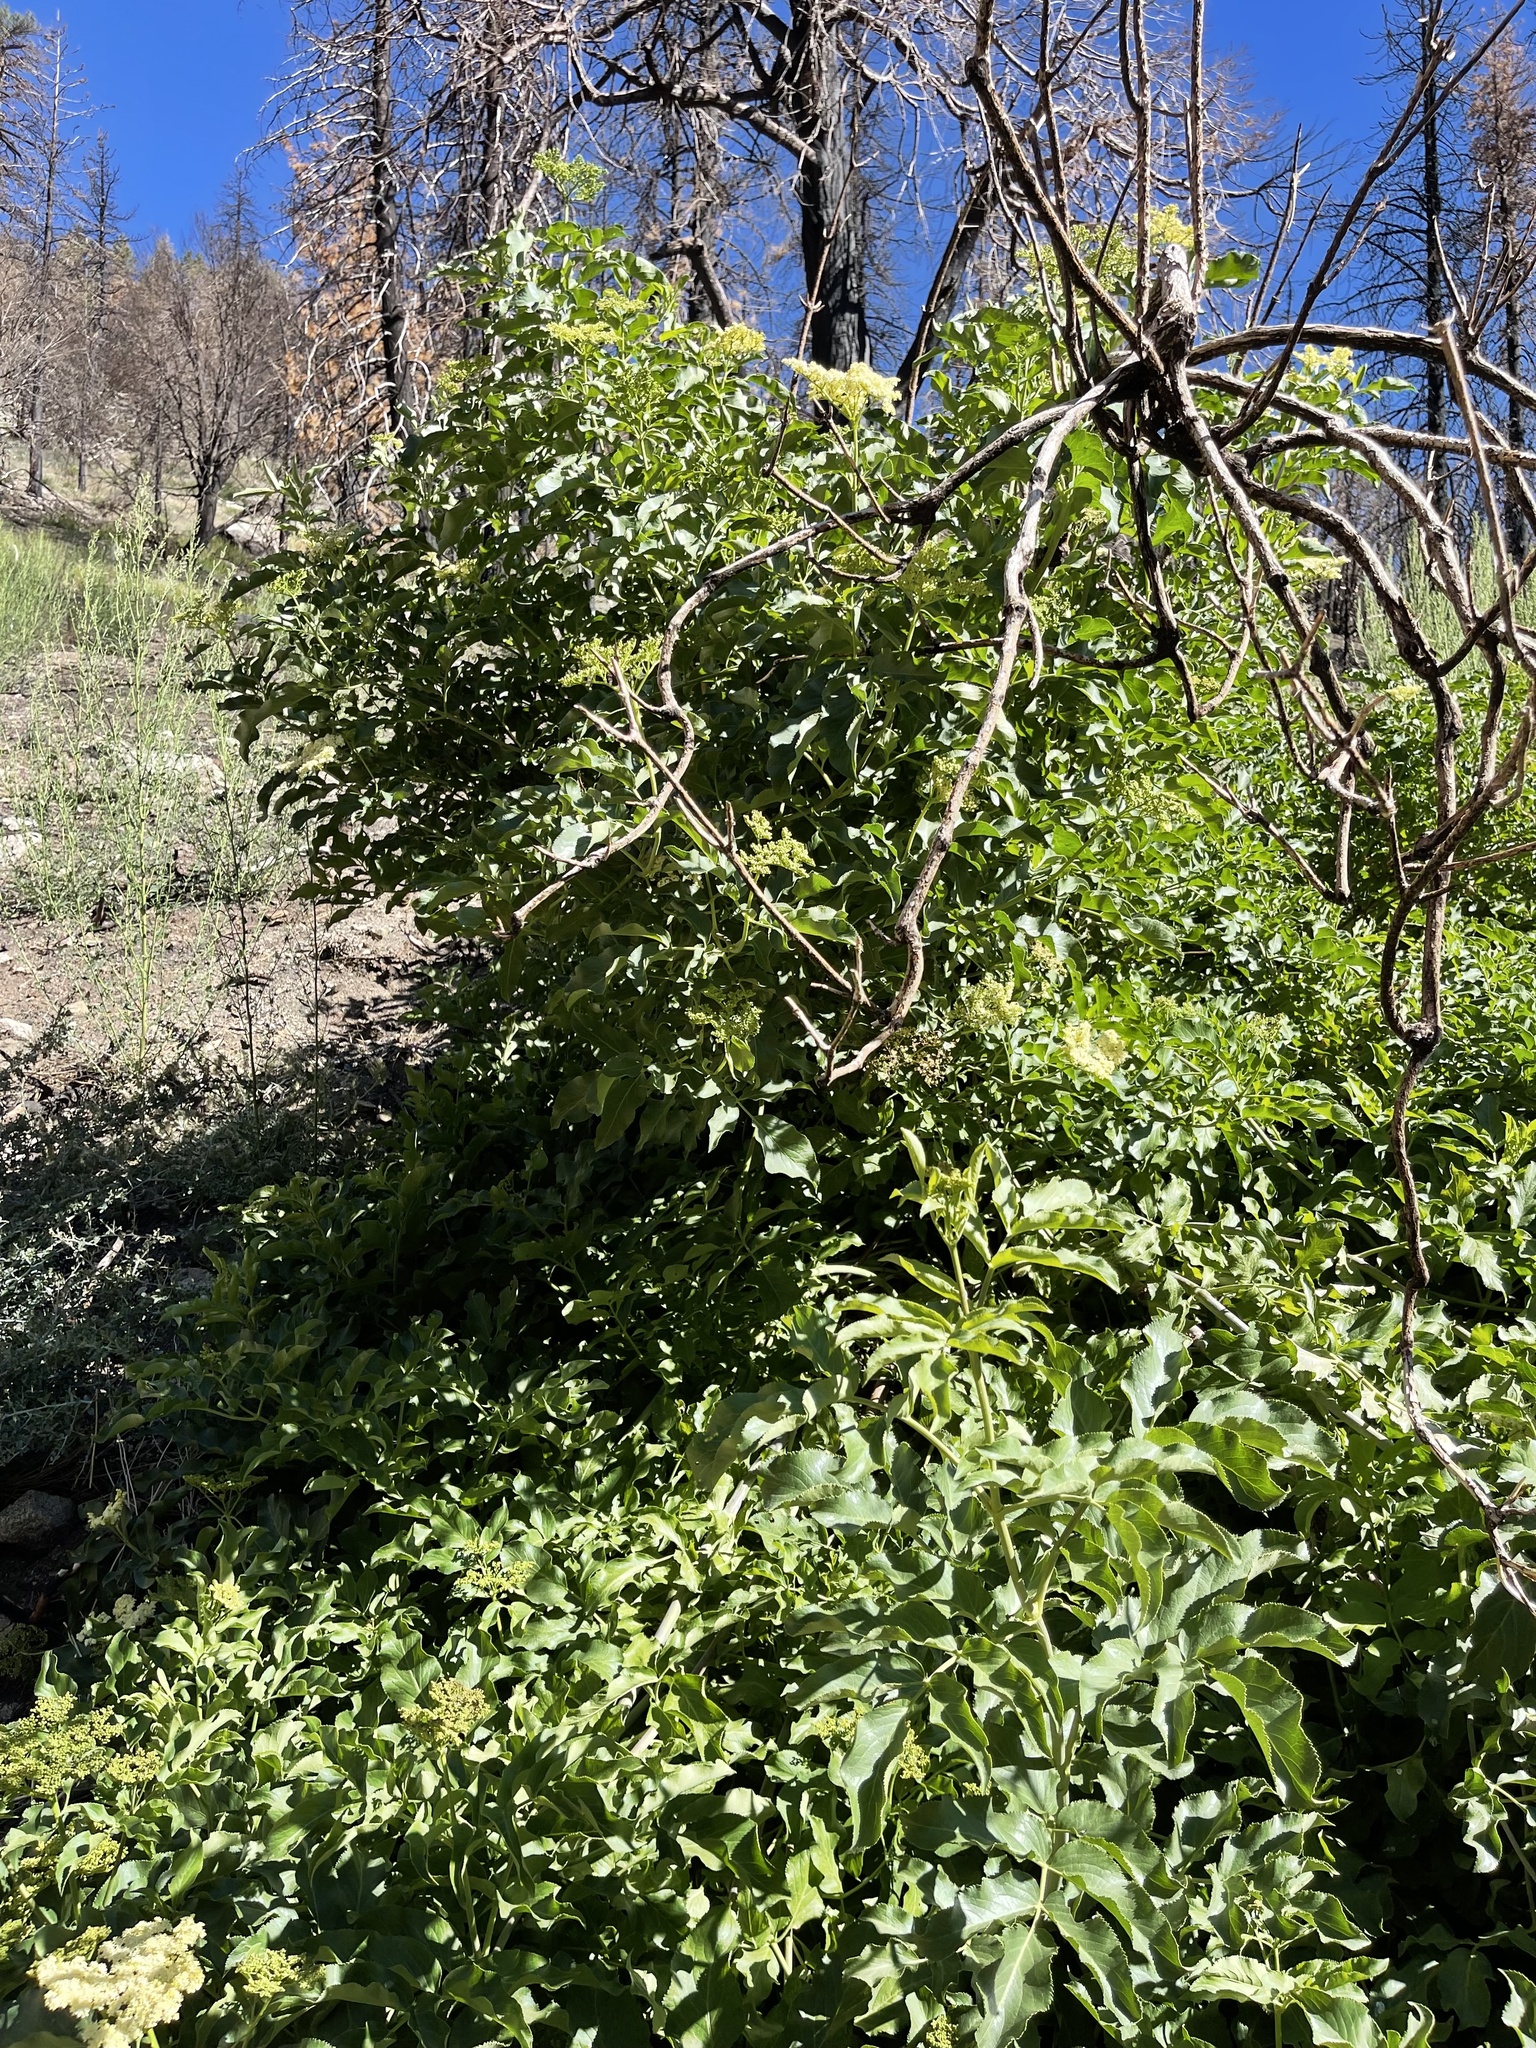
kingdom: Plantae
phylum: Tracheophyta
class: Magnoliopsida
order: Dipsacales
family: Viburnaceae
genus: Sambucus
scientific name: Sambucus cerulea
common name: Blue elder
